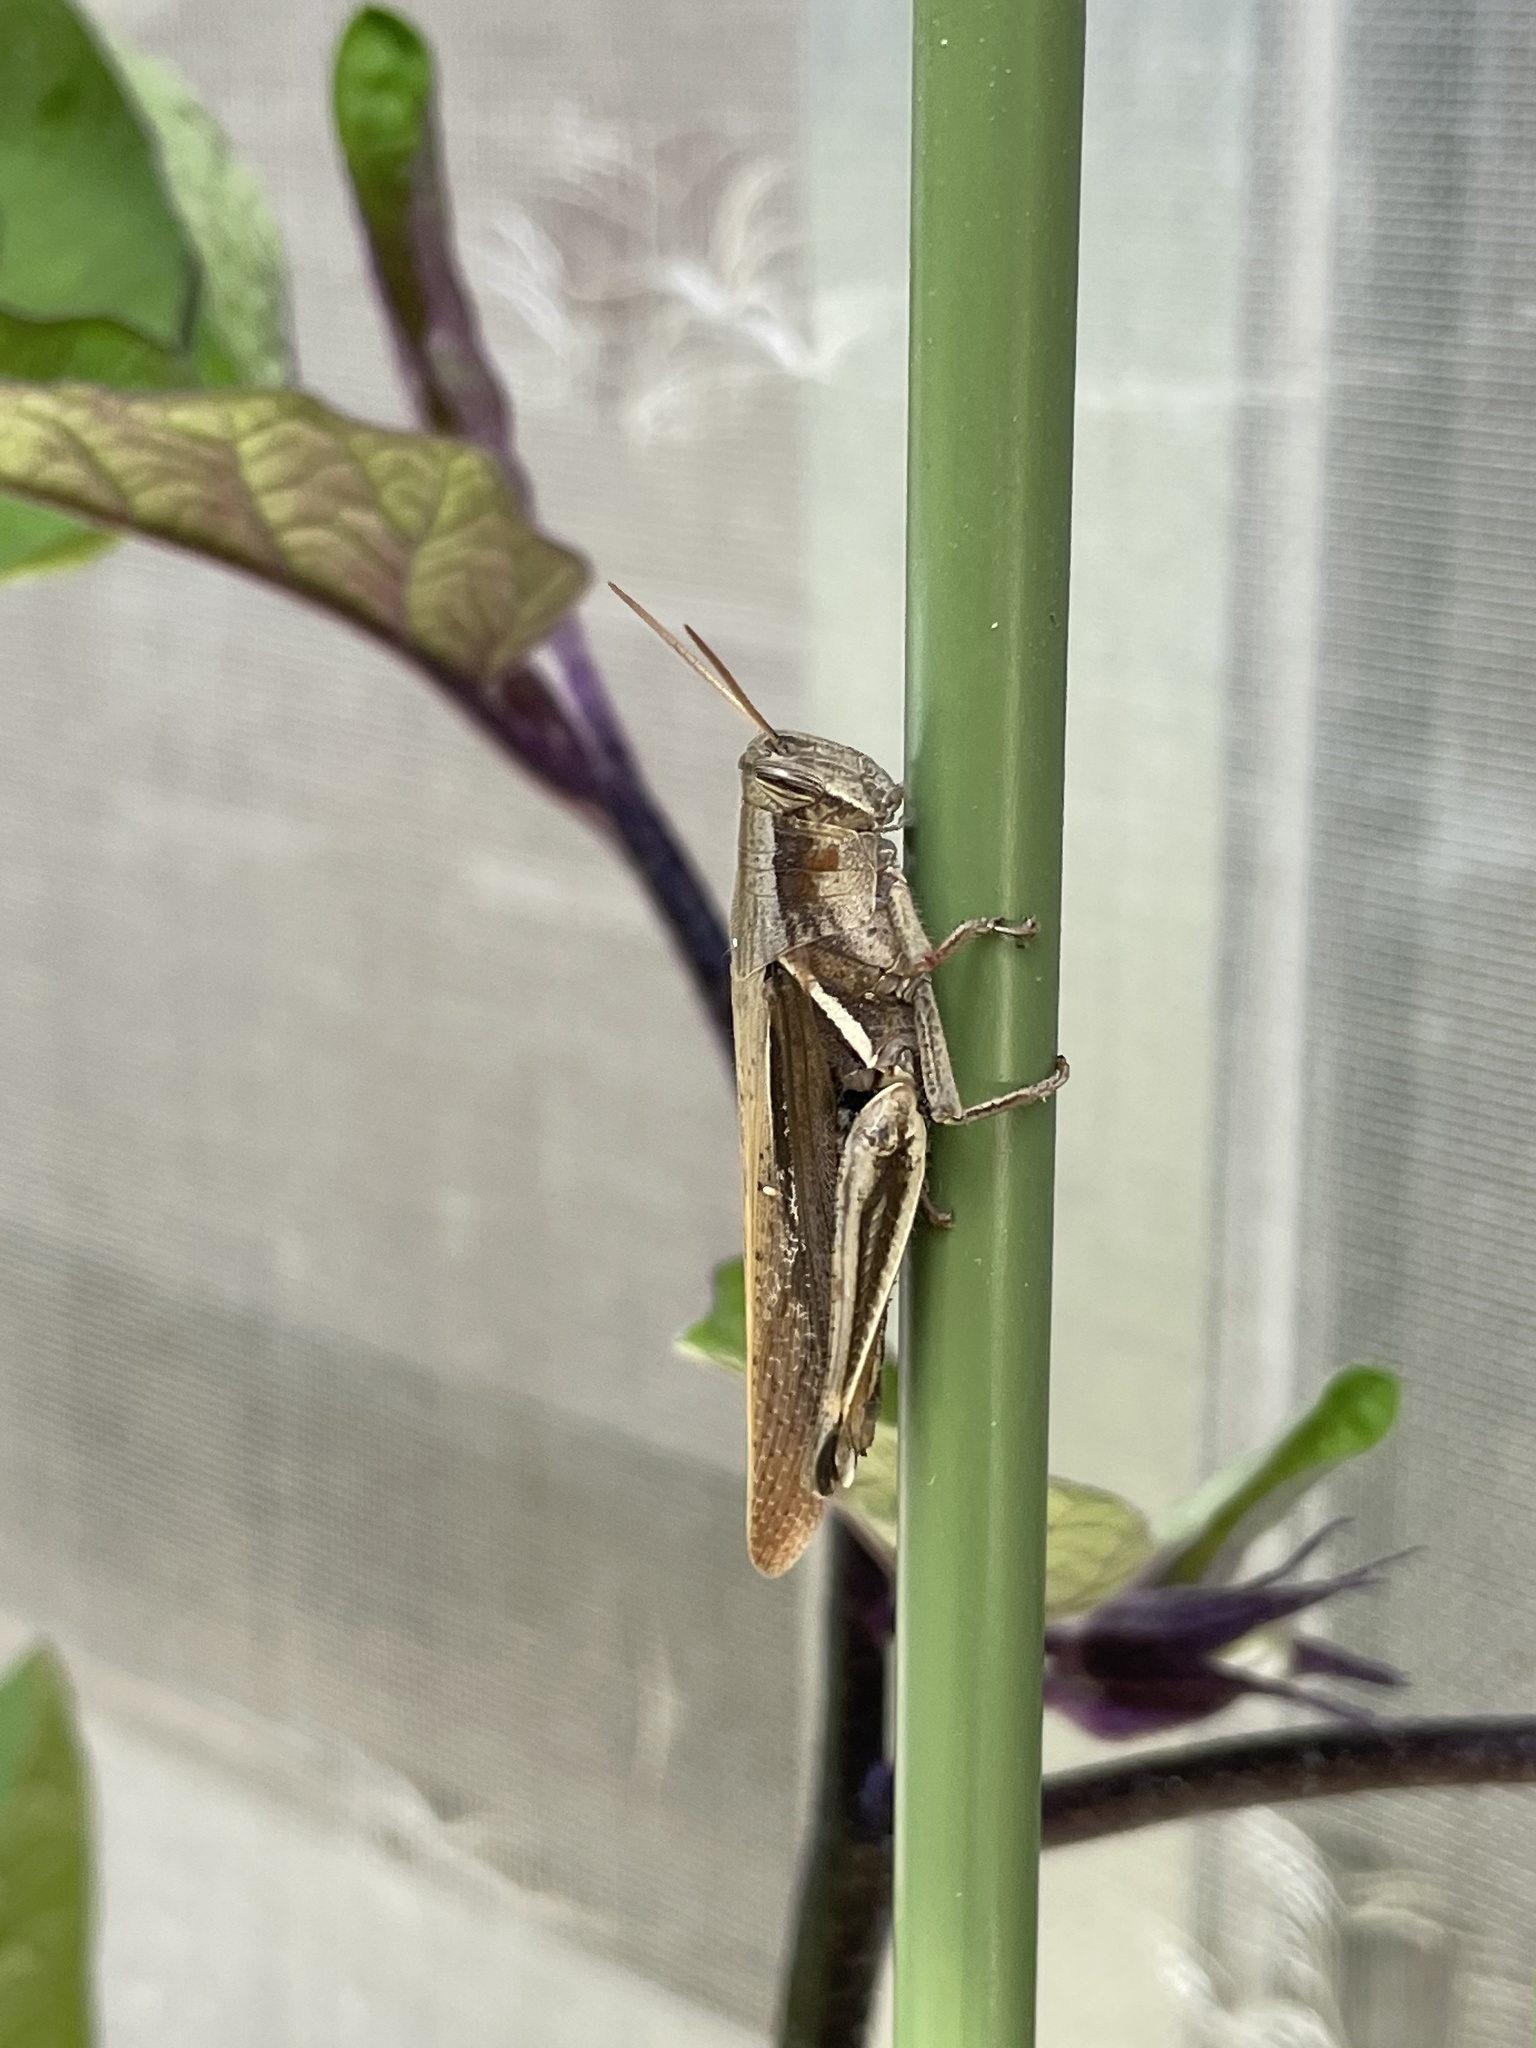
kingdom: Animalia
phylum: Arthropoda
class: Insecta
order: Orthoptera
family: Acrididae
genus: Stenocatantops
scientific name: Stenocatantops mistshenkoi
